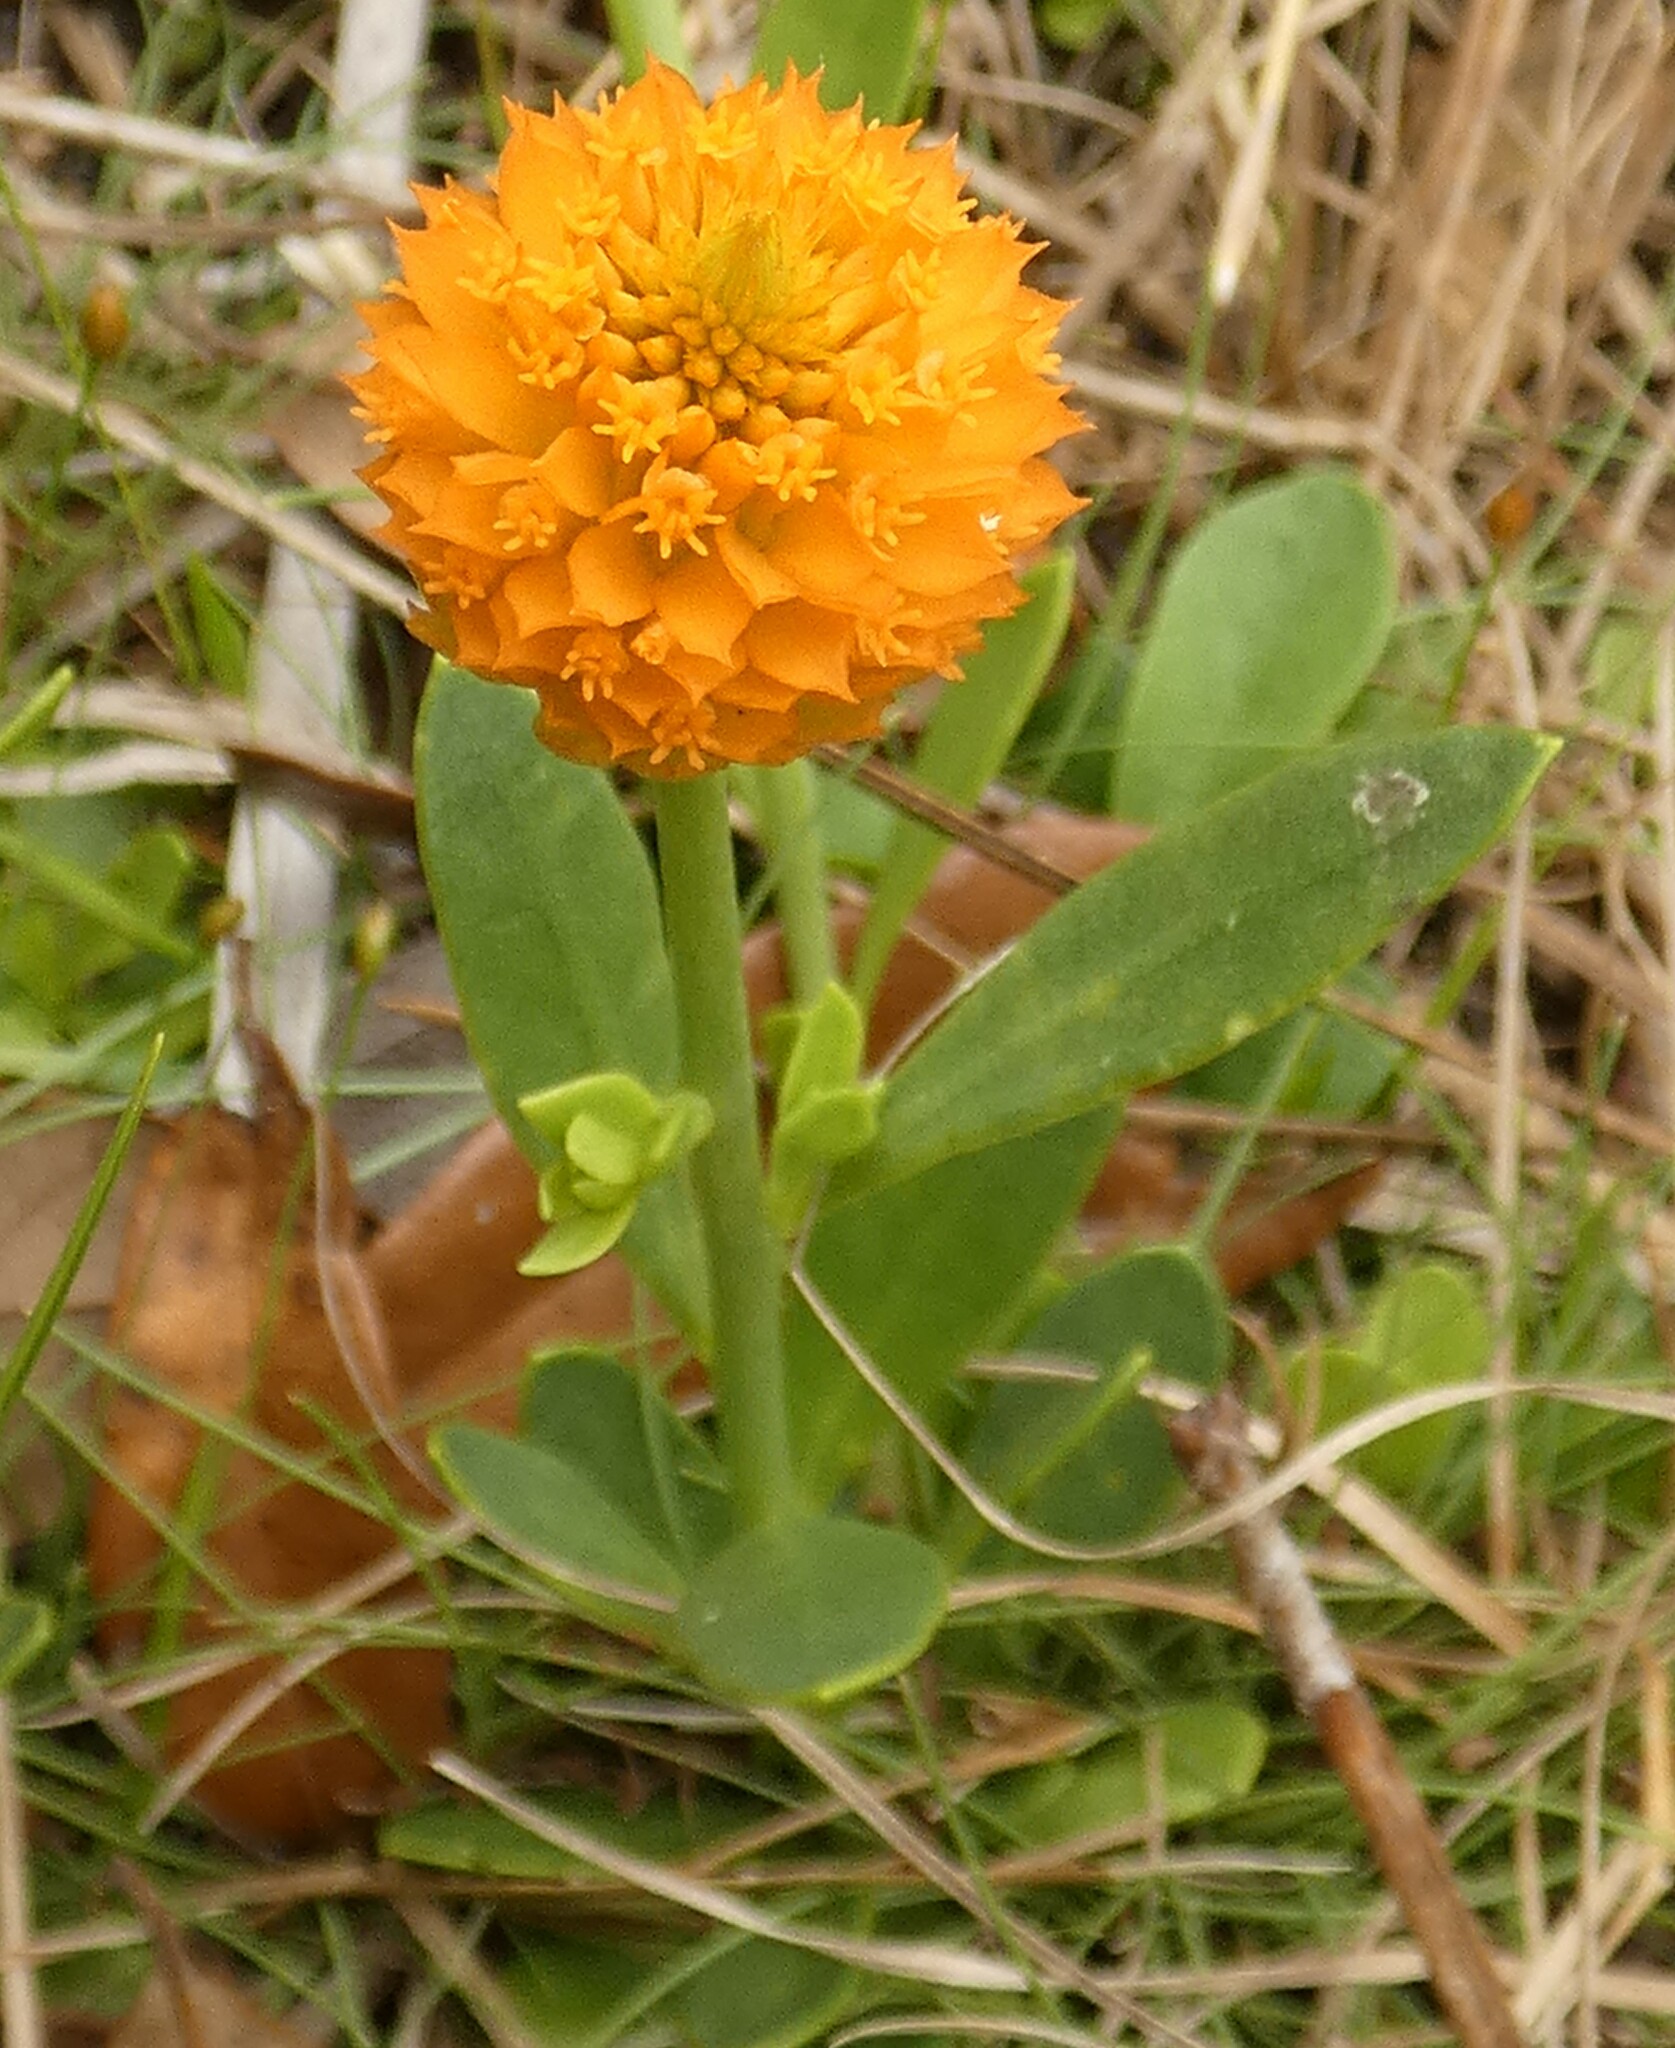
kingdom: Plantae
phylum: Tracheophyta
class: Magnoliopsida
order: Fabales
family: Polygalaceae
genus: Polygala
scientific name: Polygala lutea
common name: Orange milkwort
